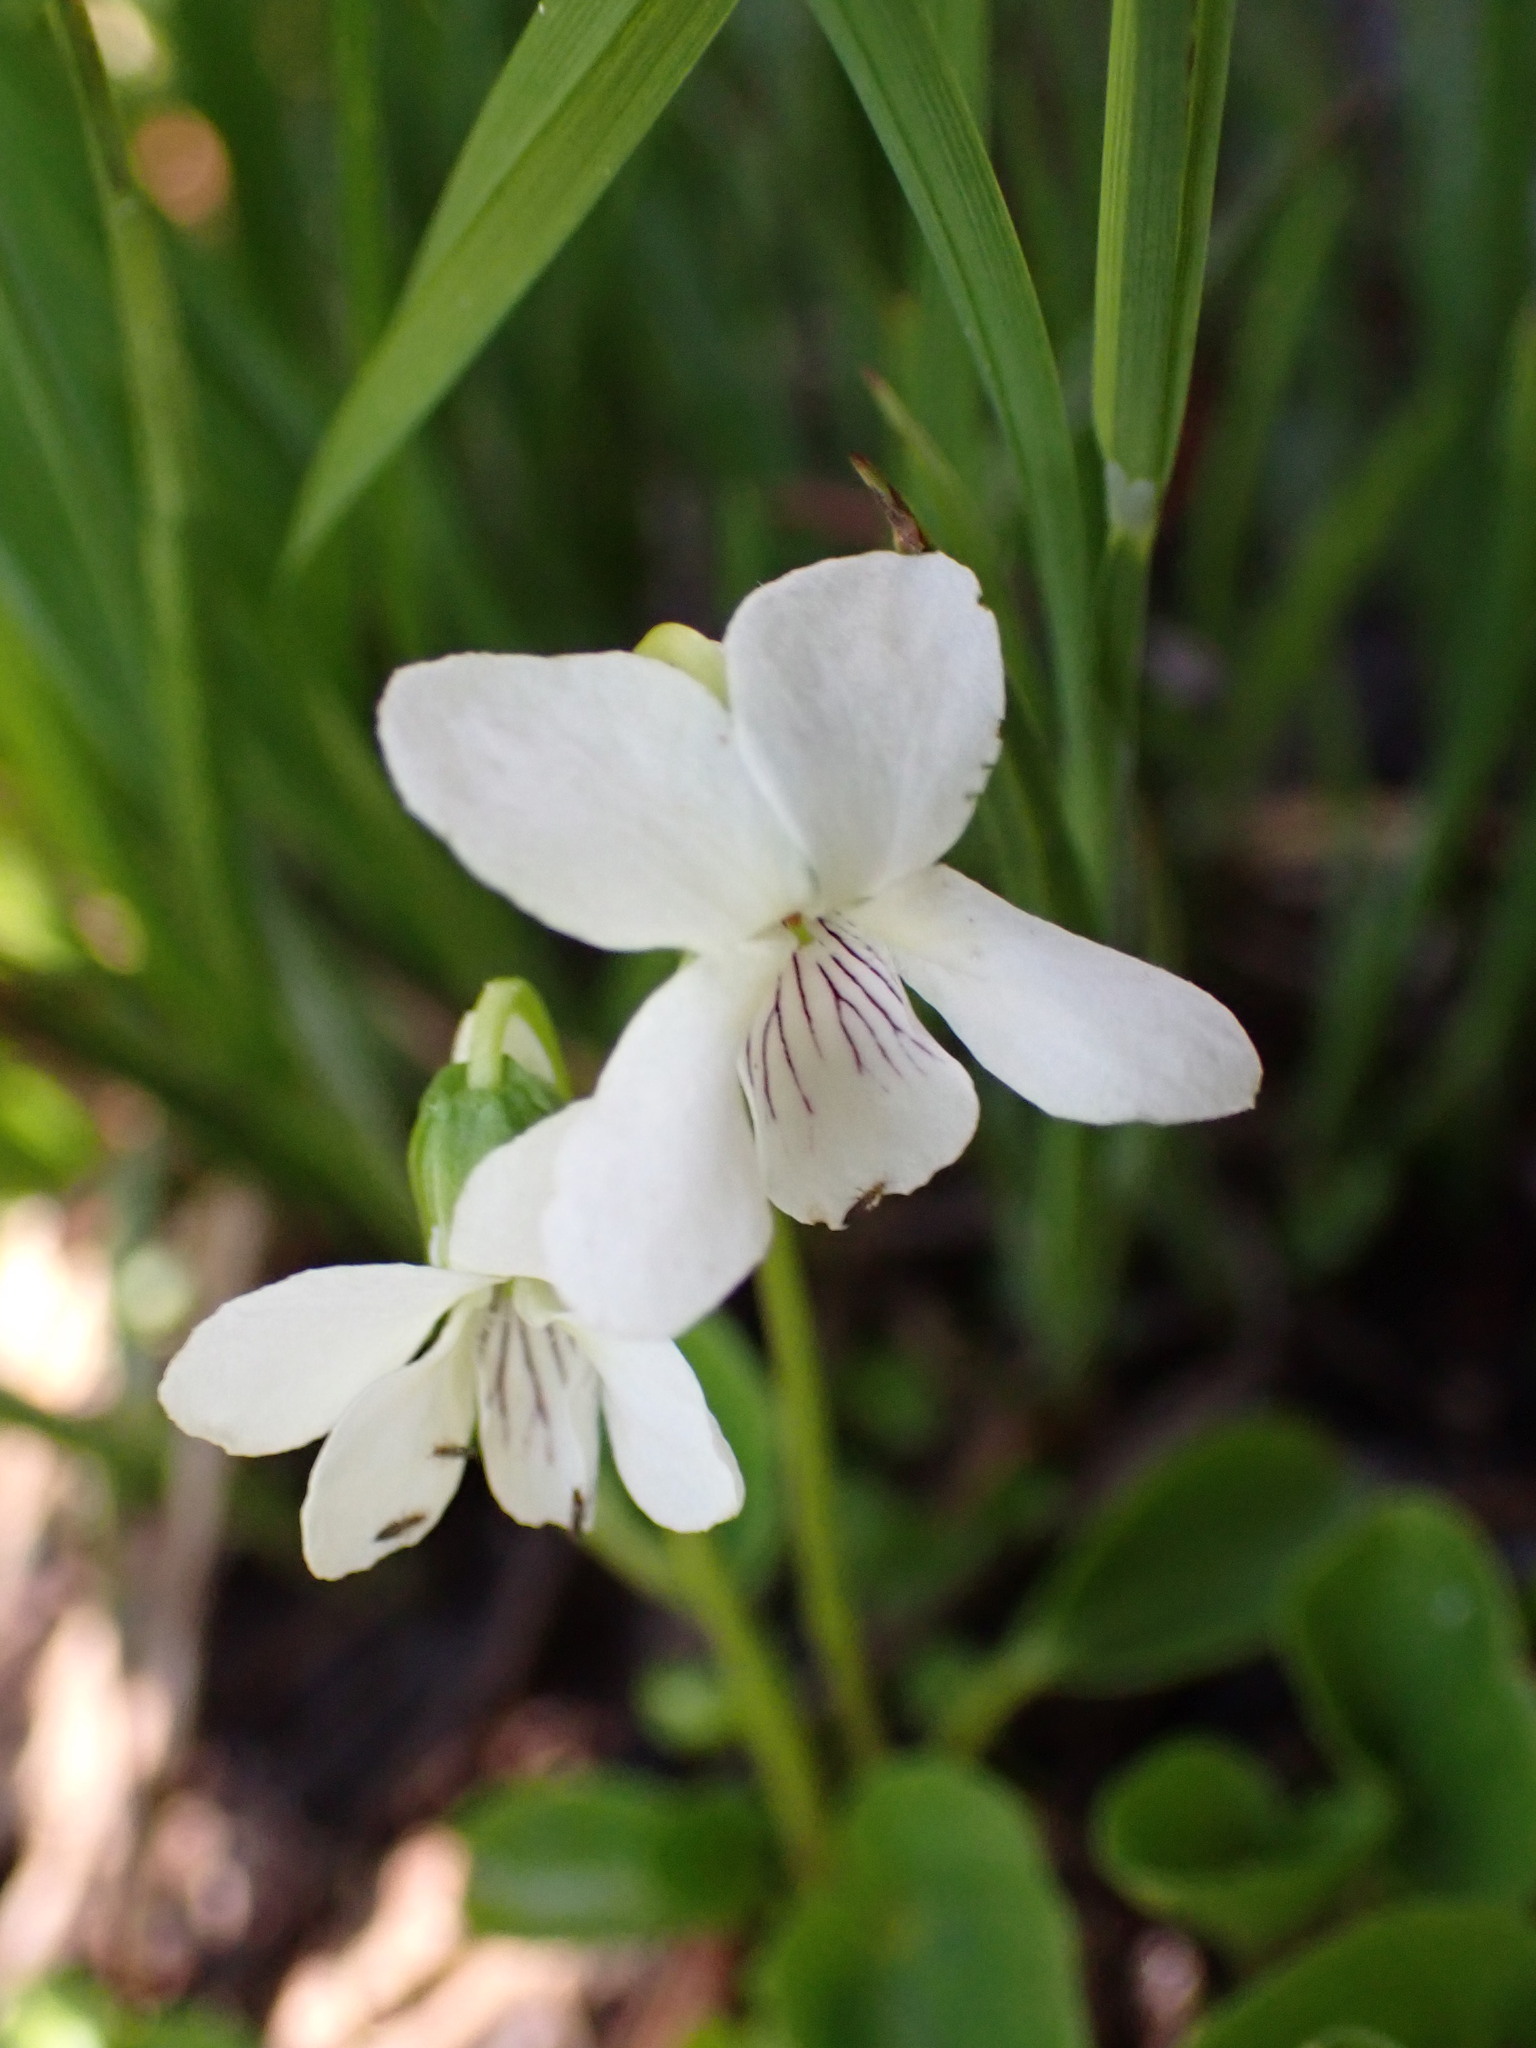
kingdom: Plantae
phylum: Tracheophyta
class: Magnoliopsida
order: Malpighiales
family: Violaceae
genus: Viola
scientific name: Viola macloskeyi
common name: Macloskey's violet
